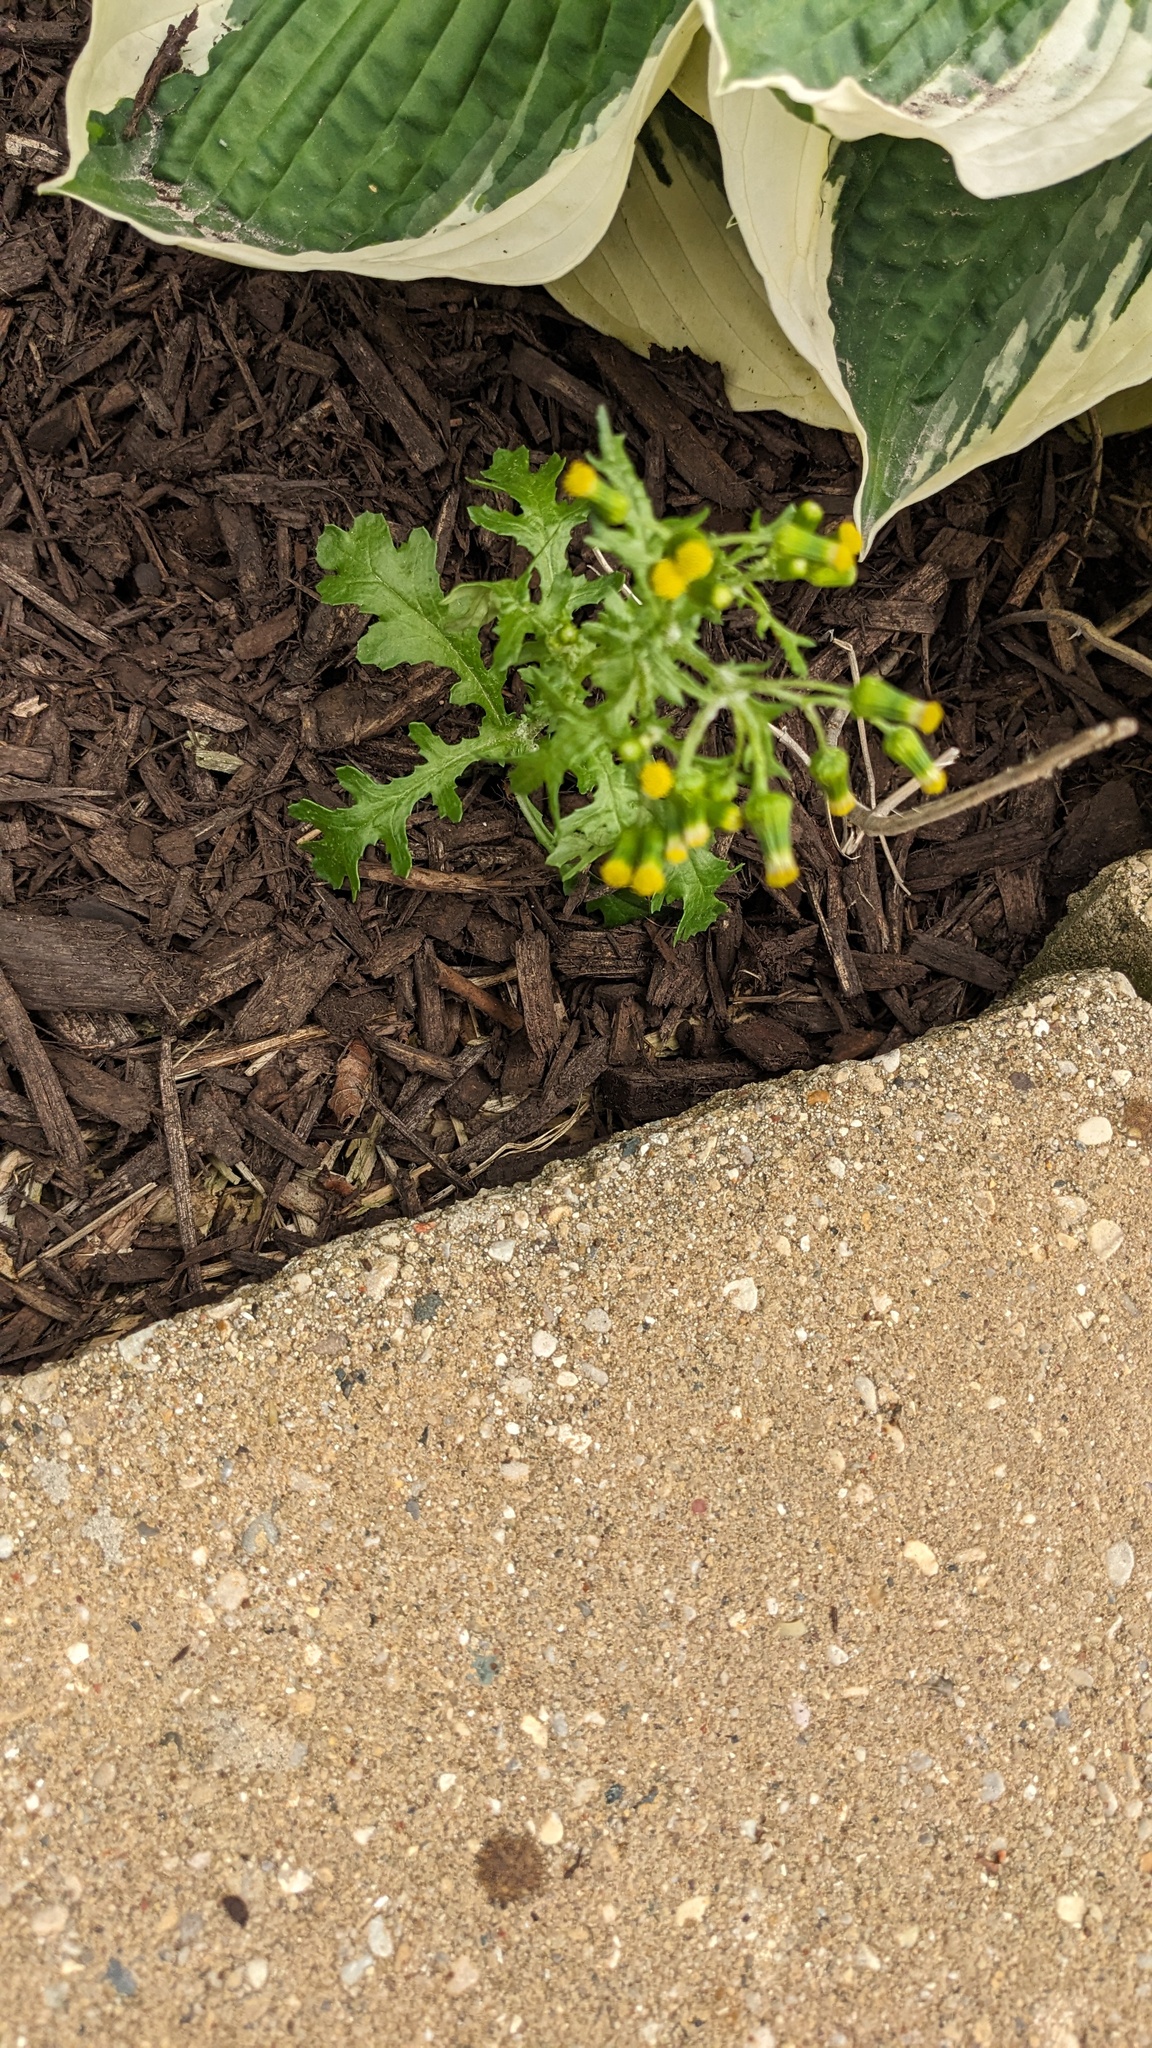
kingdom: Plantae
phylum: Tracheophyta
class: Magnoliopsida
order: Asterales
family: Asteraceae
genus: Senecio
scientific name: Senecio vulgaris
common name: Old-man-in-the-spring
